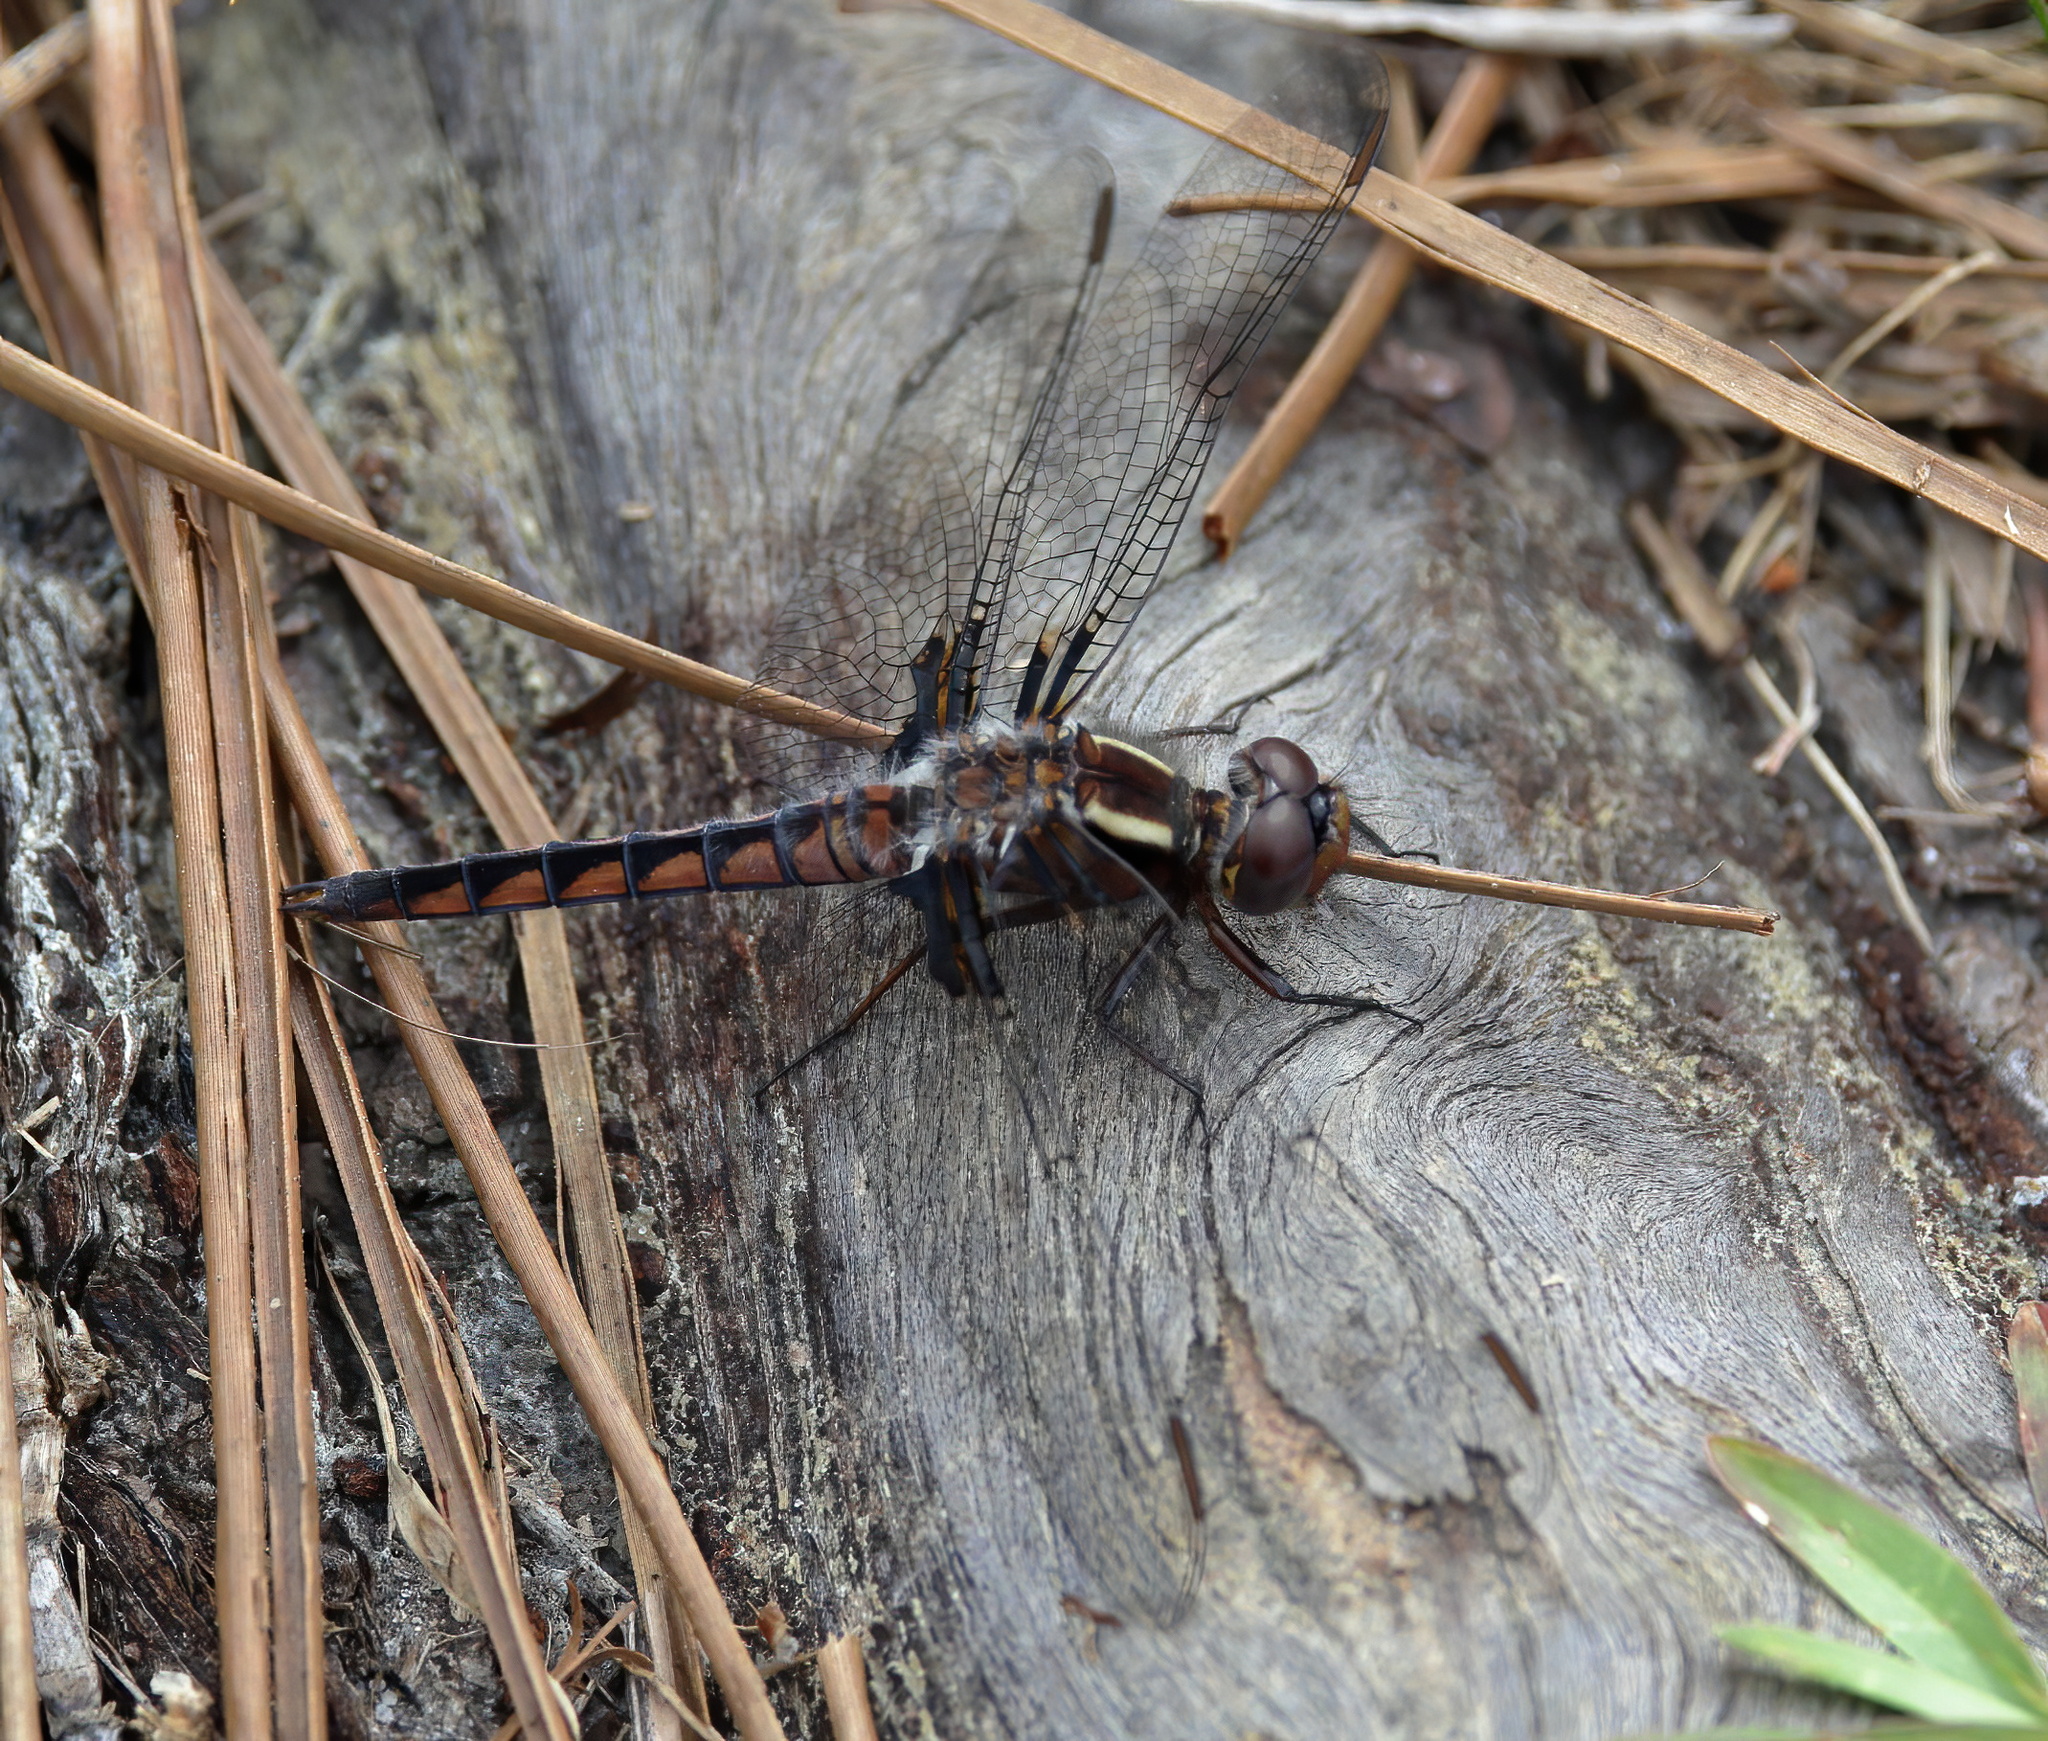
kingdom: Animalia
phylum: Arthropoda
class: Insecta
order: Odonata
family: Libellulidae
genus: Ladona
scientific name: Ladona deplanata
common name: Blue corporal
